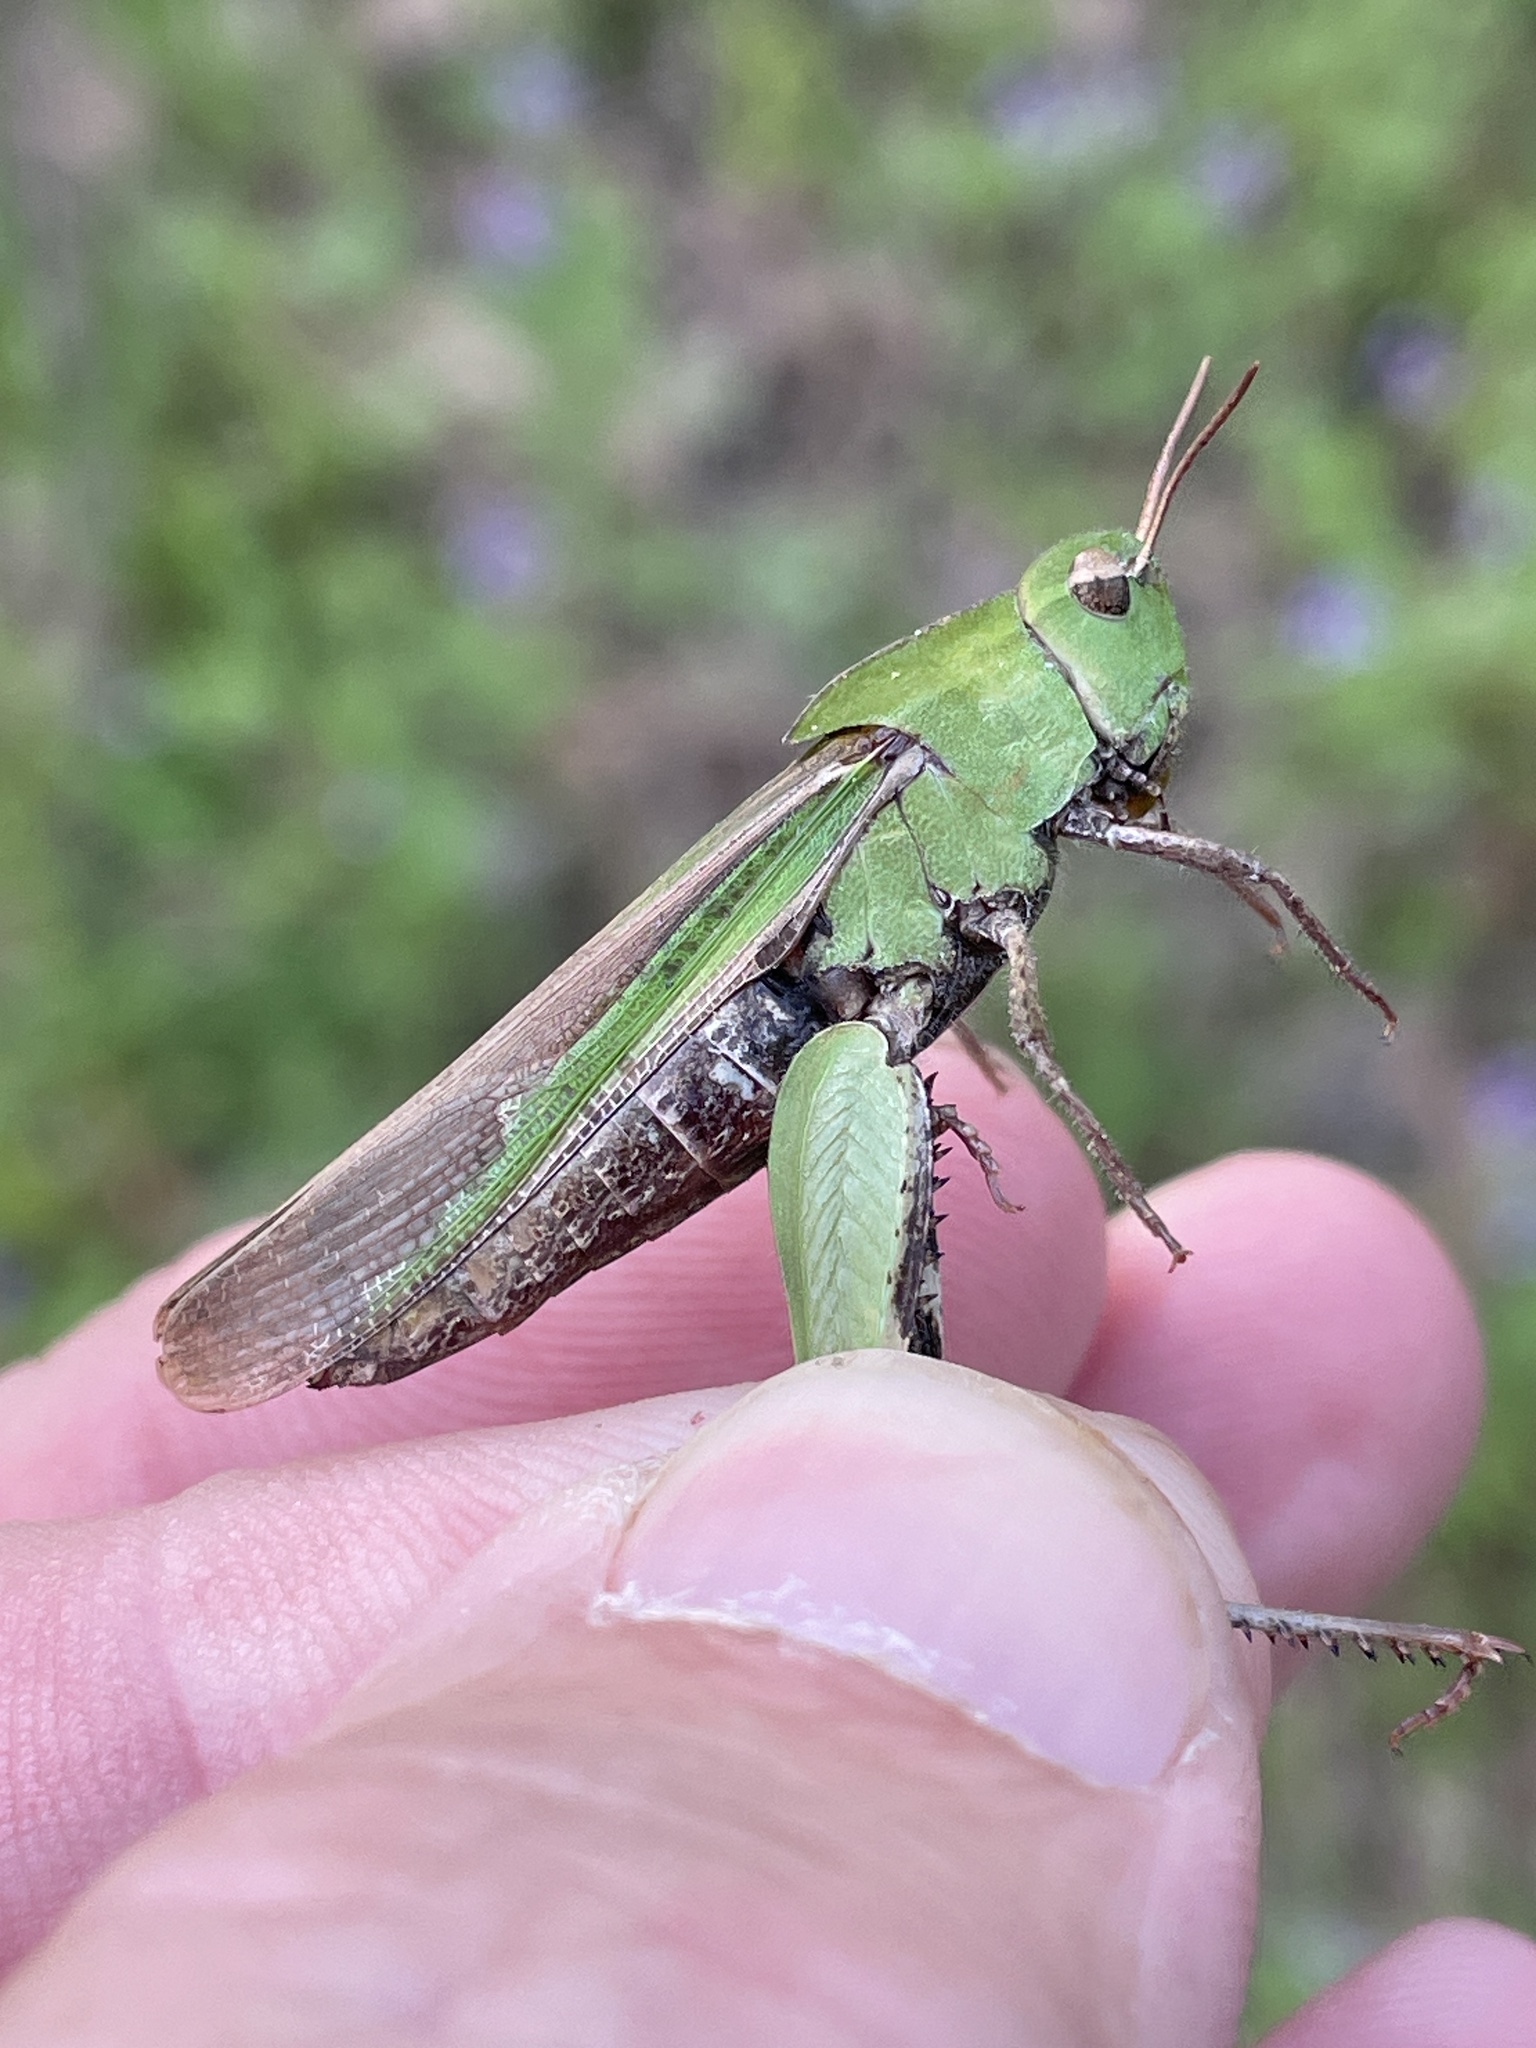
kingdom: Animalia
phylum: Arthropoda
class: Insecta
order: Orthoptera
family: Acrididae
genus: Chortophaga
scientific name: Chortophaga viridifasciata
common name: Green-striped grasshopper
